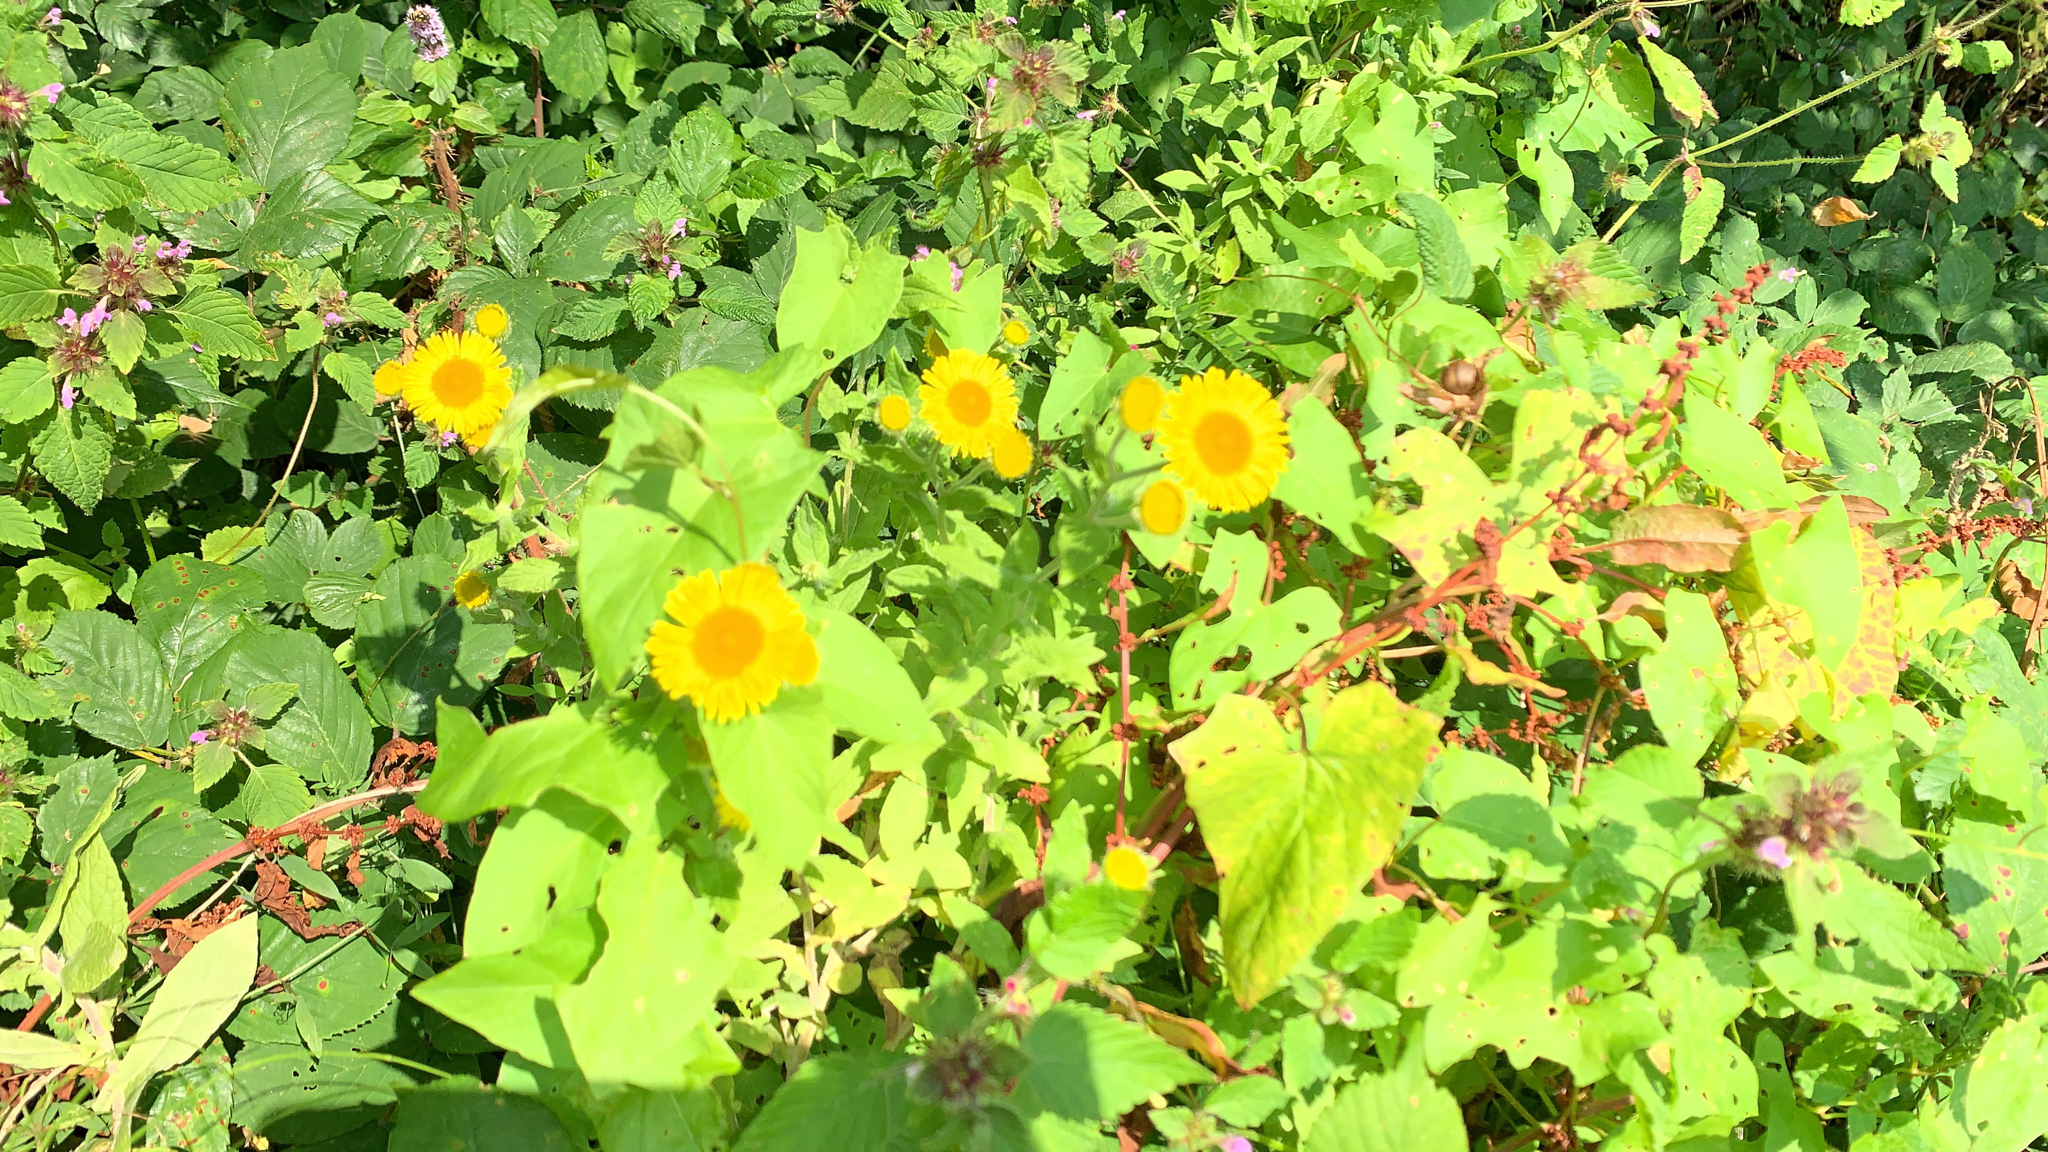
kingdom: Plantae
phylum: Tracheophyta
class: Magnoliopsida
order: Asterales
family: Asteraceae
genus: Pulicaria
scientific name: Pulicaria dysenterica
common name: Common fleabane
